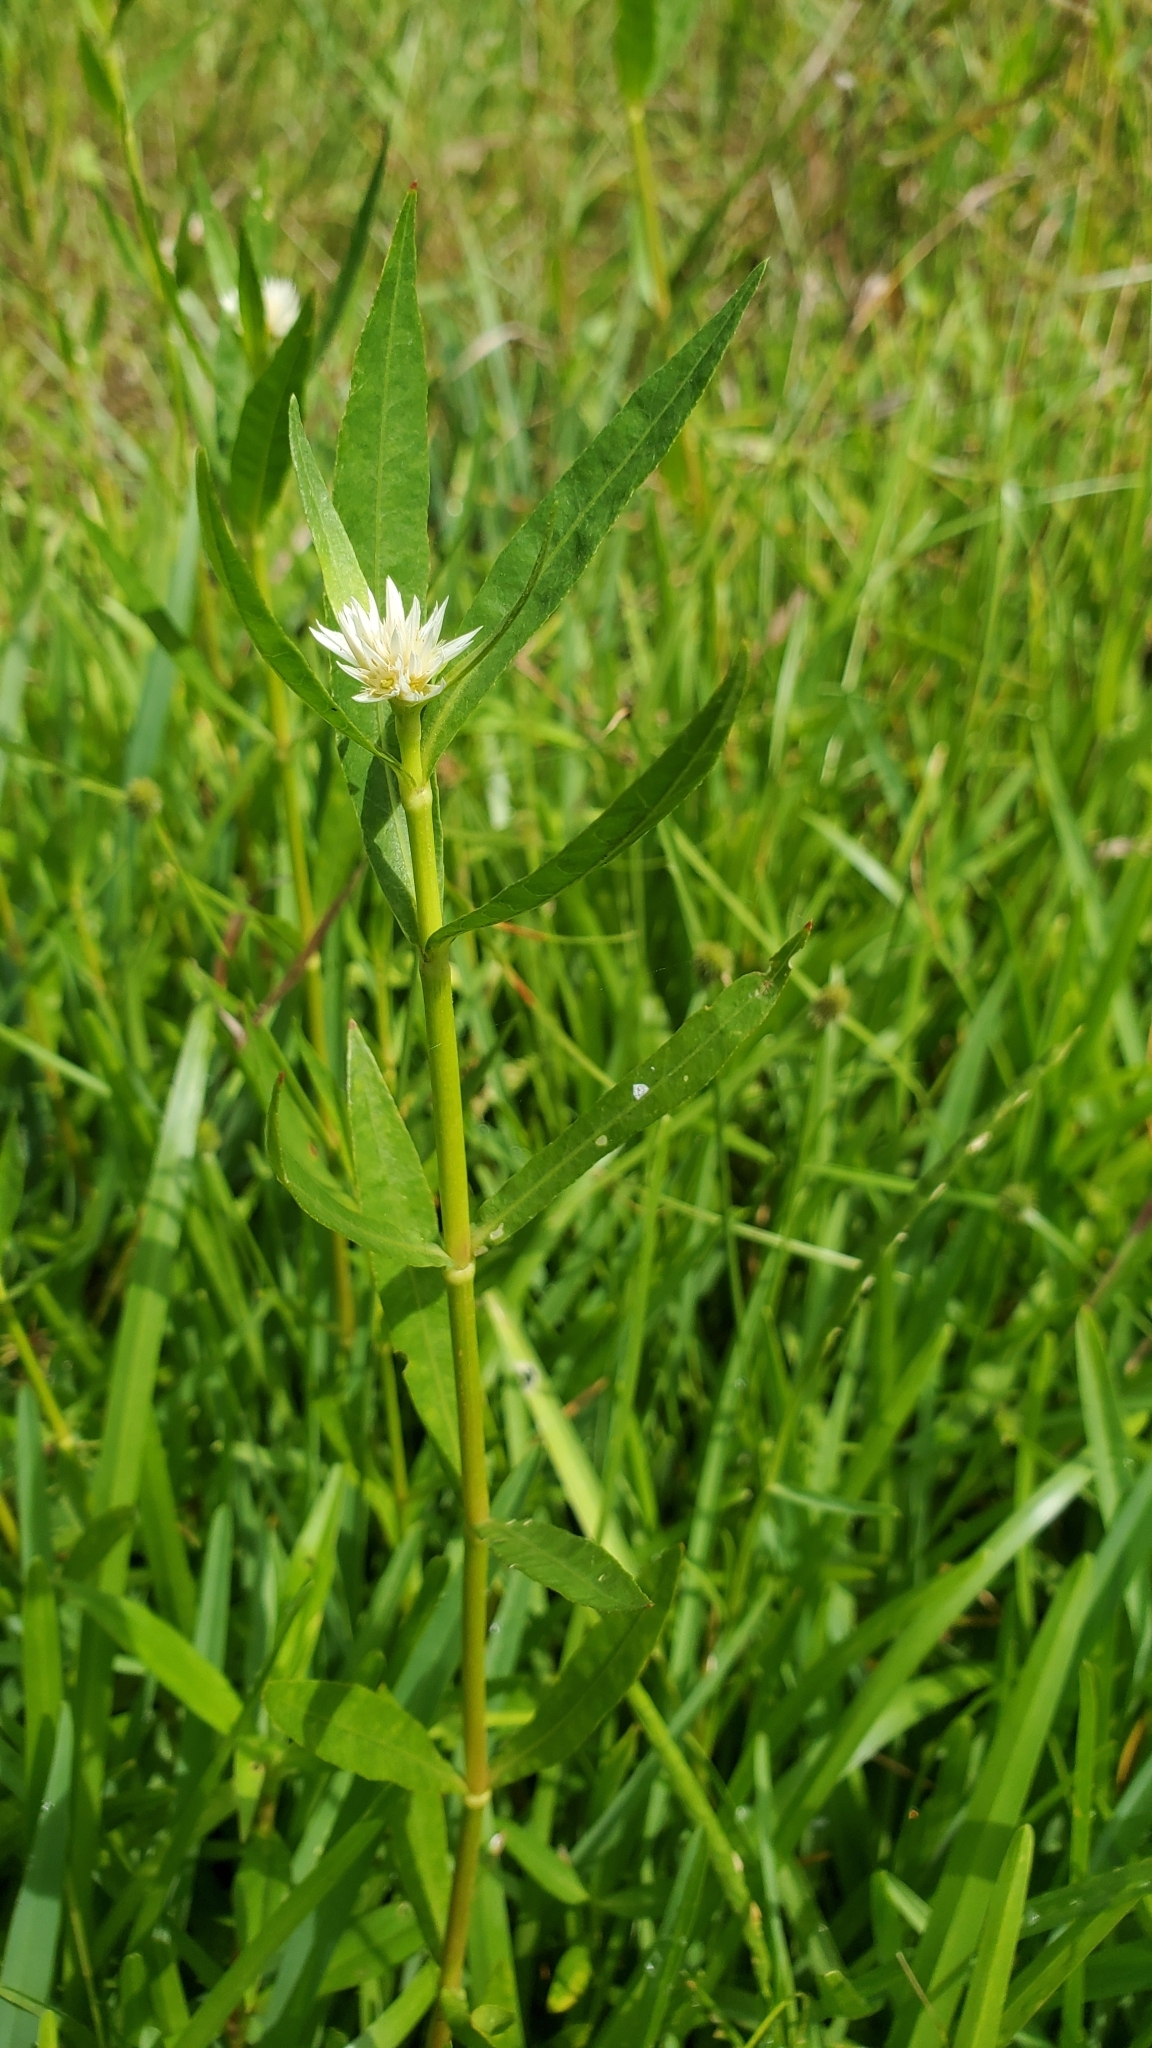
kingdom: Plantae
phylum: Tracheophyta
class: Magnoliopsida
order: Caryophyllales
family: Amaranthaceae
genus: Alternanthera
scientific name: Alternanthera philoxeroides
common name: Alligatorweed
